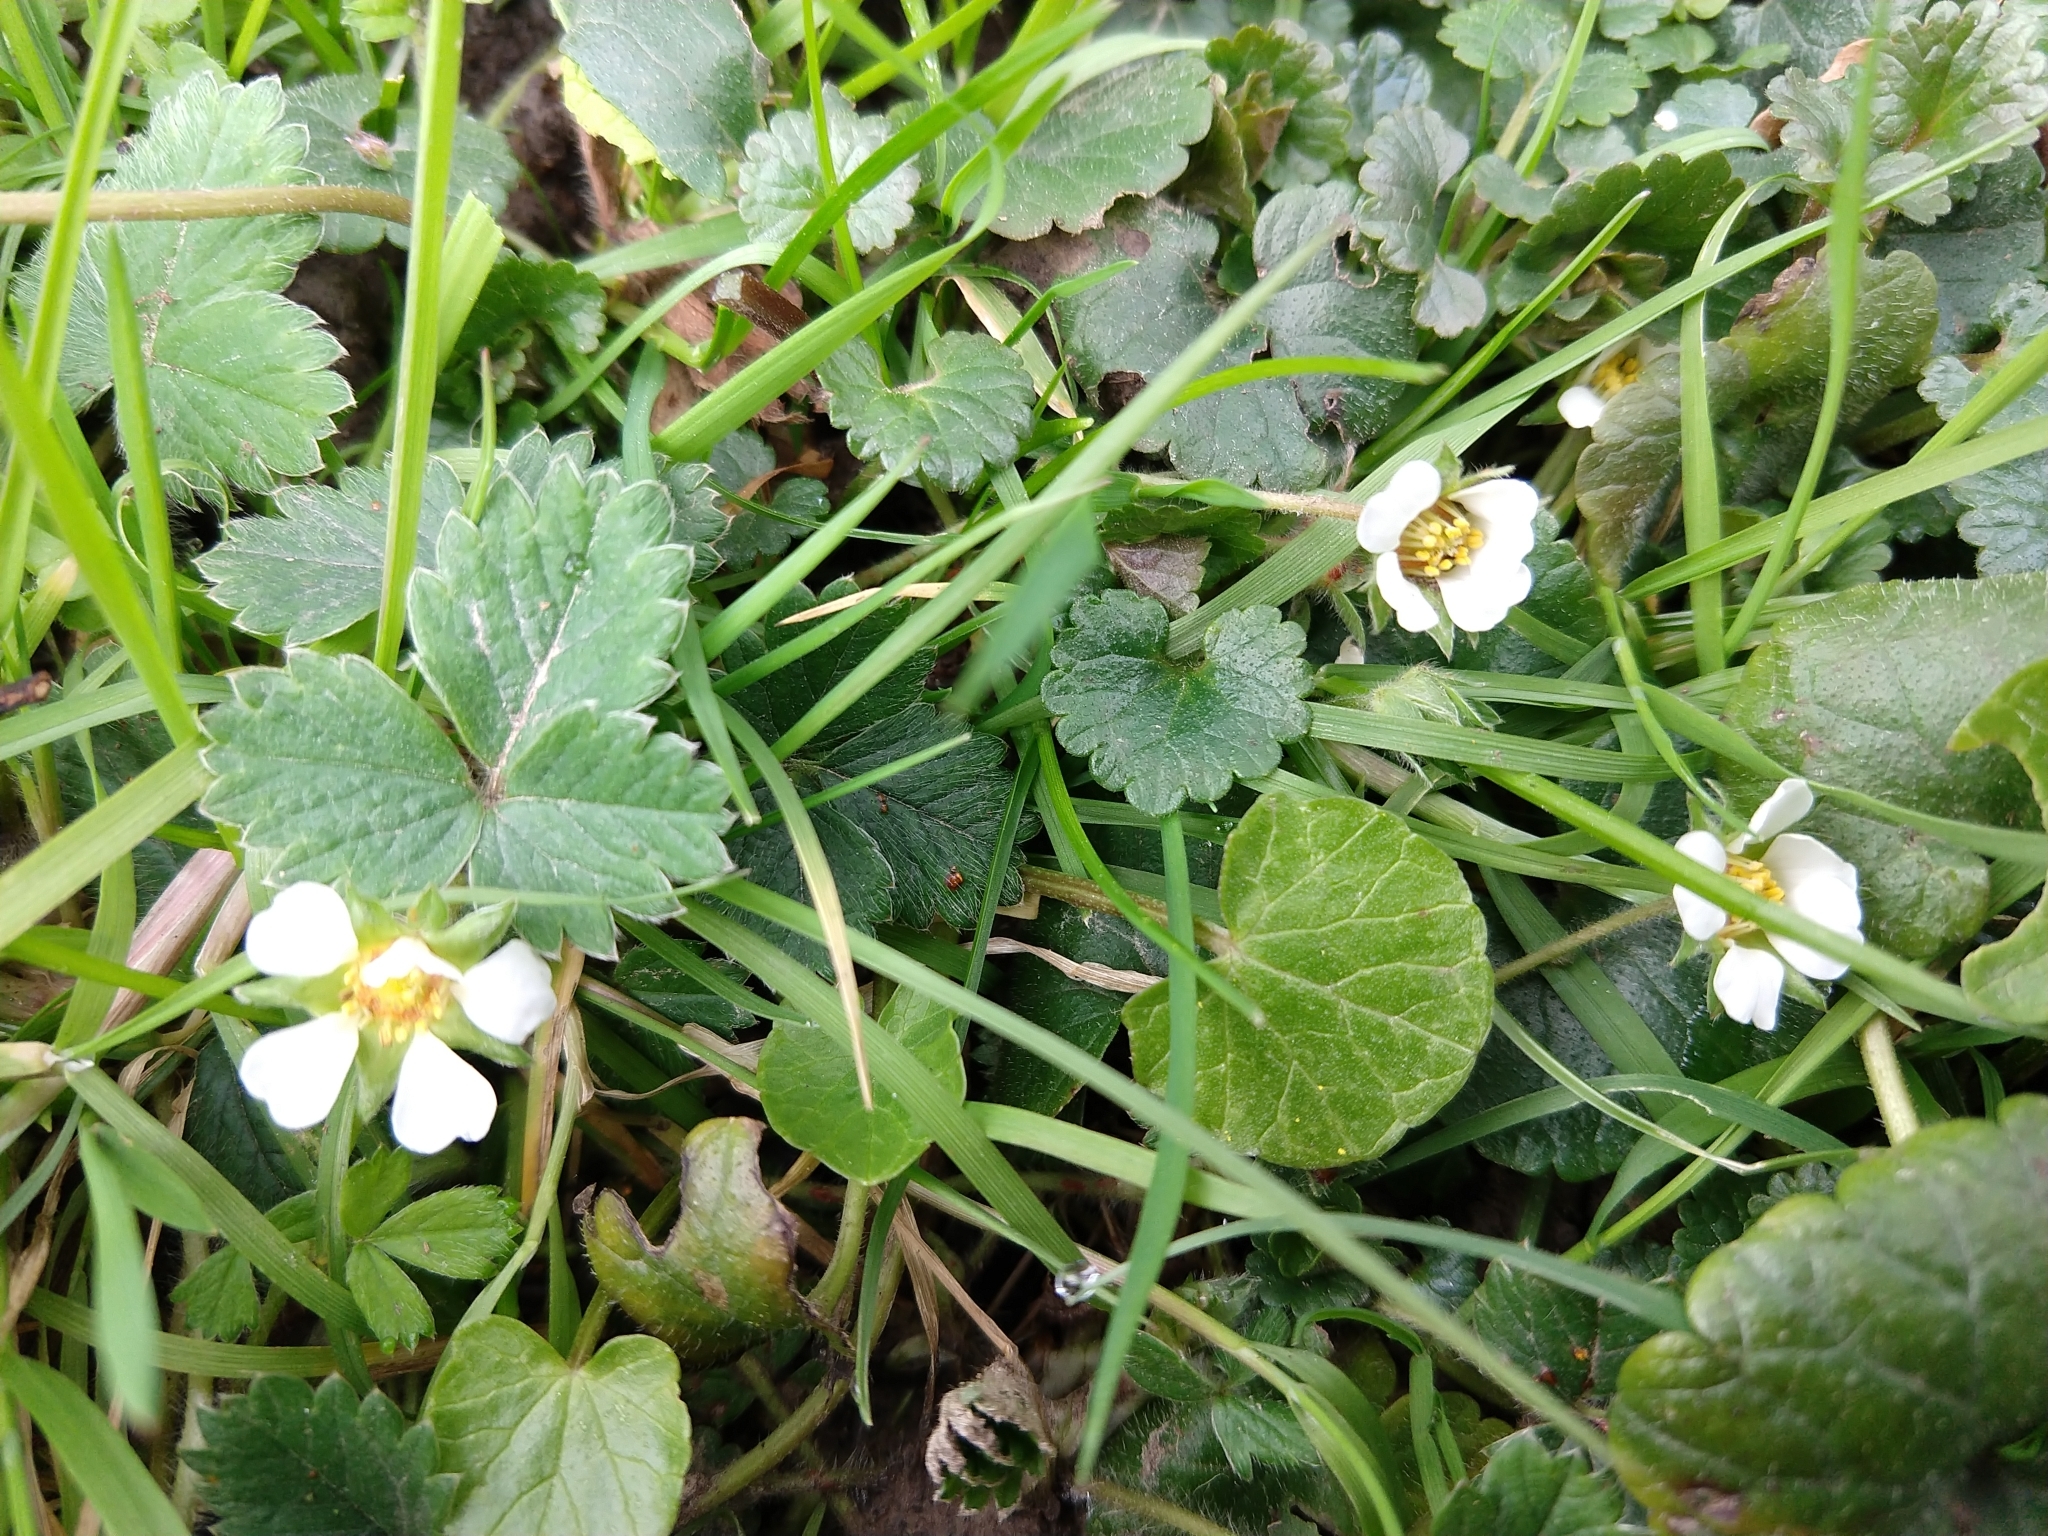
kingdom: Plantae
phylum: Tracheophyta
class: Magnoliopsida
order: Rosales
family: Rosaceae
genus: Potentilla
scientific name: Potentilla sterilis
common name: Barren strawberry
